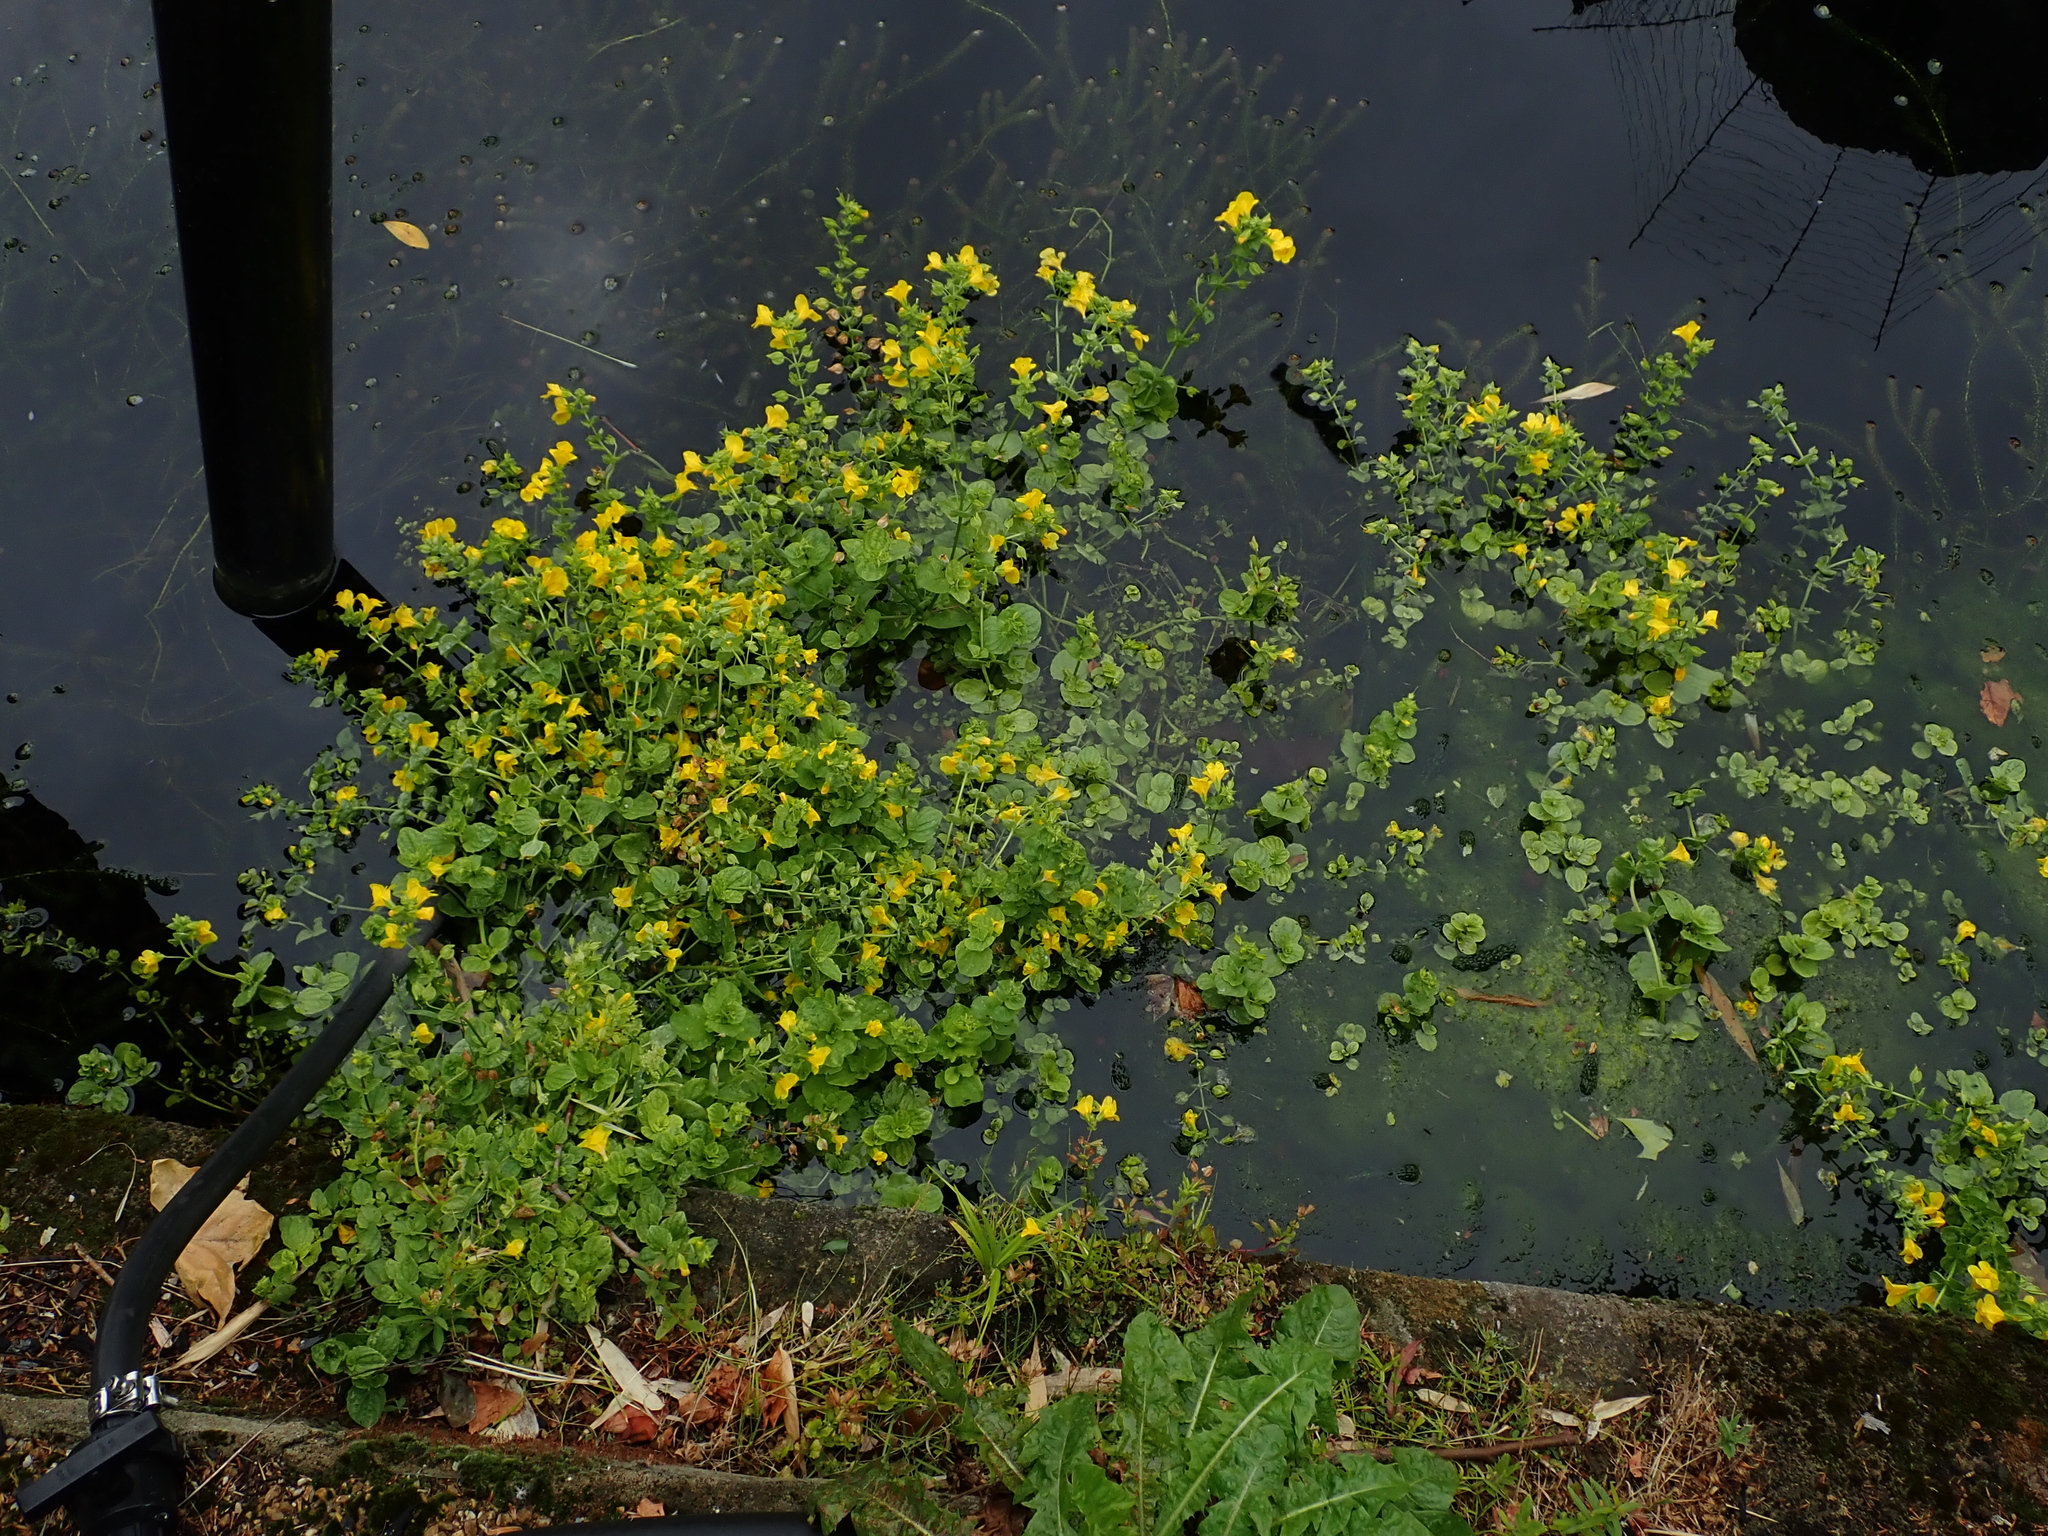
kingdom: Plantae
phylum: Tracheophyta
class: Magnoliopsida
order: Lamiales
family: Phrymaceae
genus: Erythranthe
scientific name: Erythranthe guttata
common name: Monkeyflower
